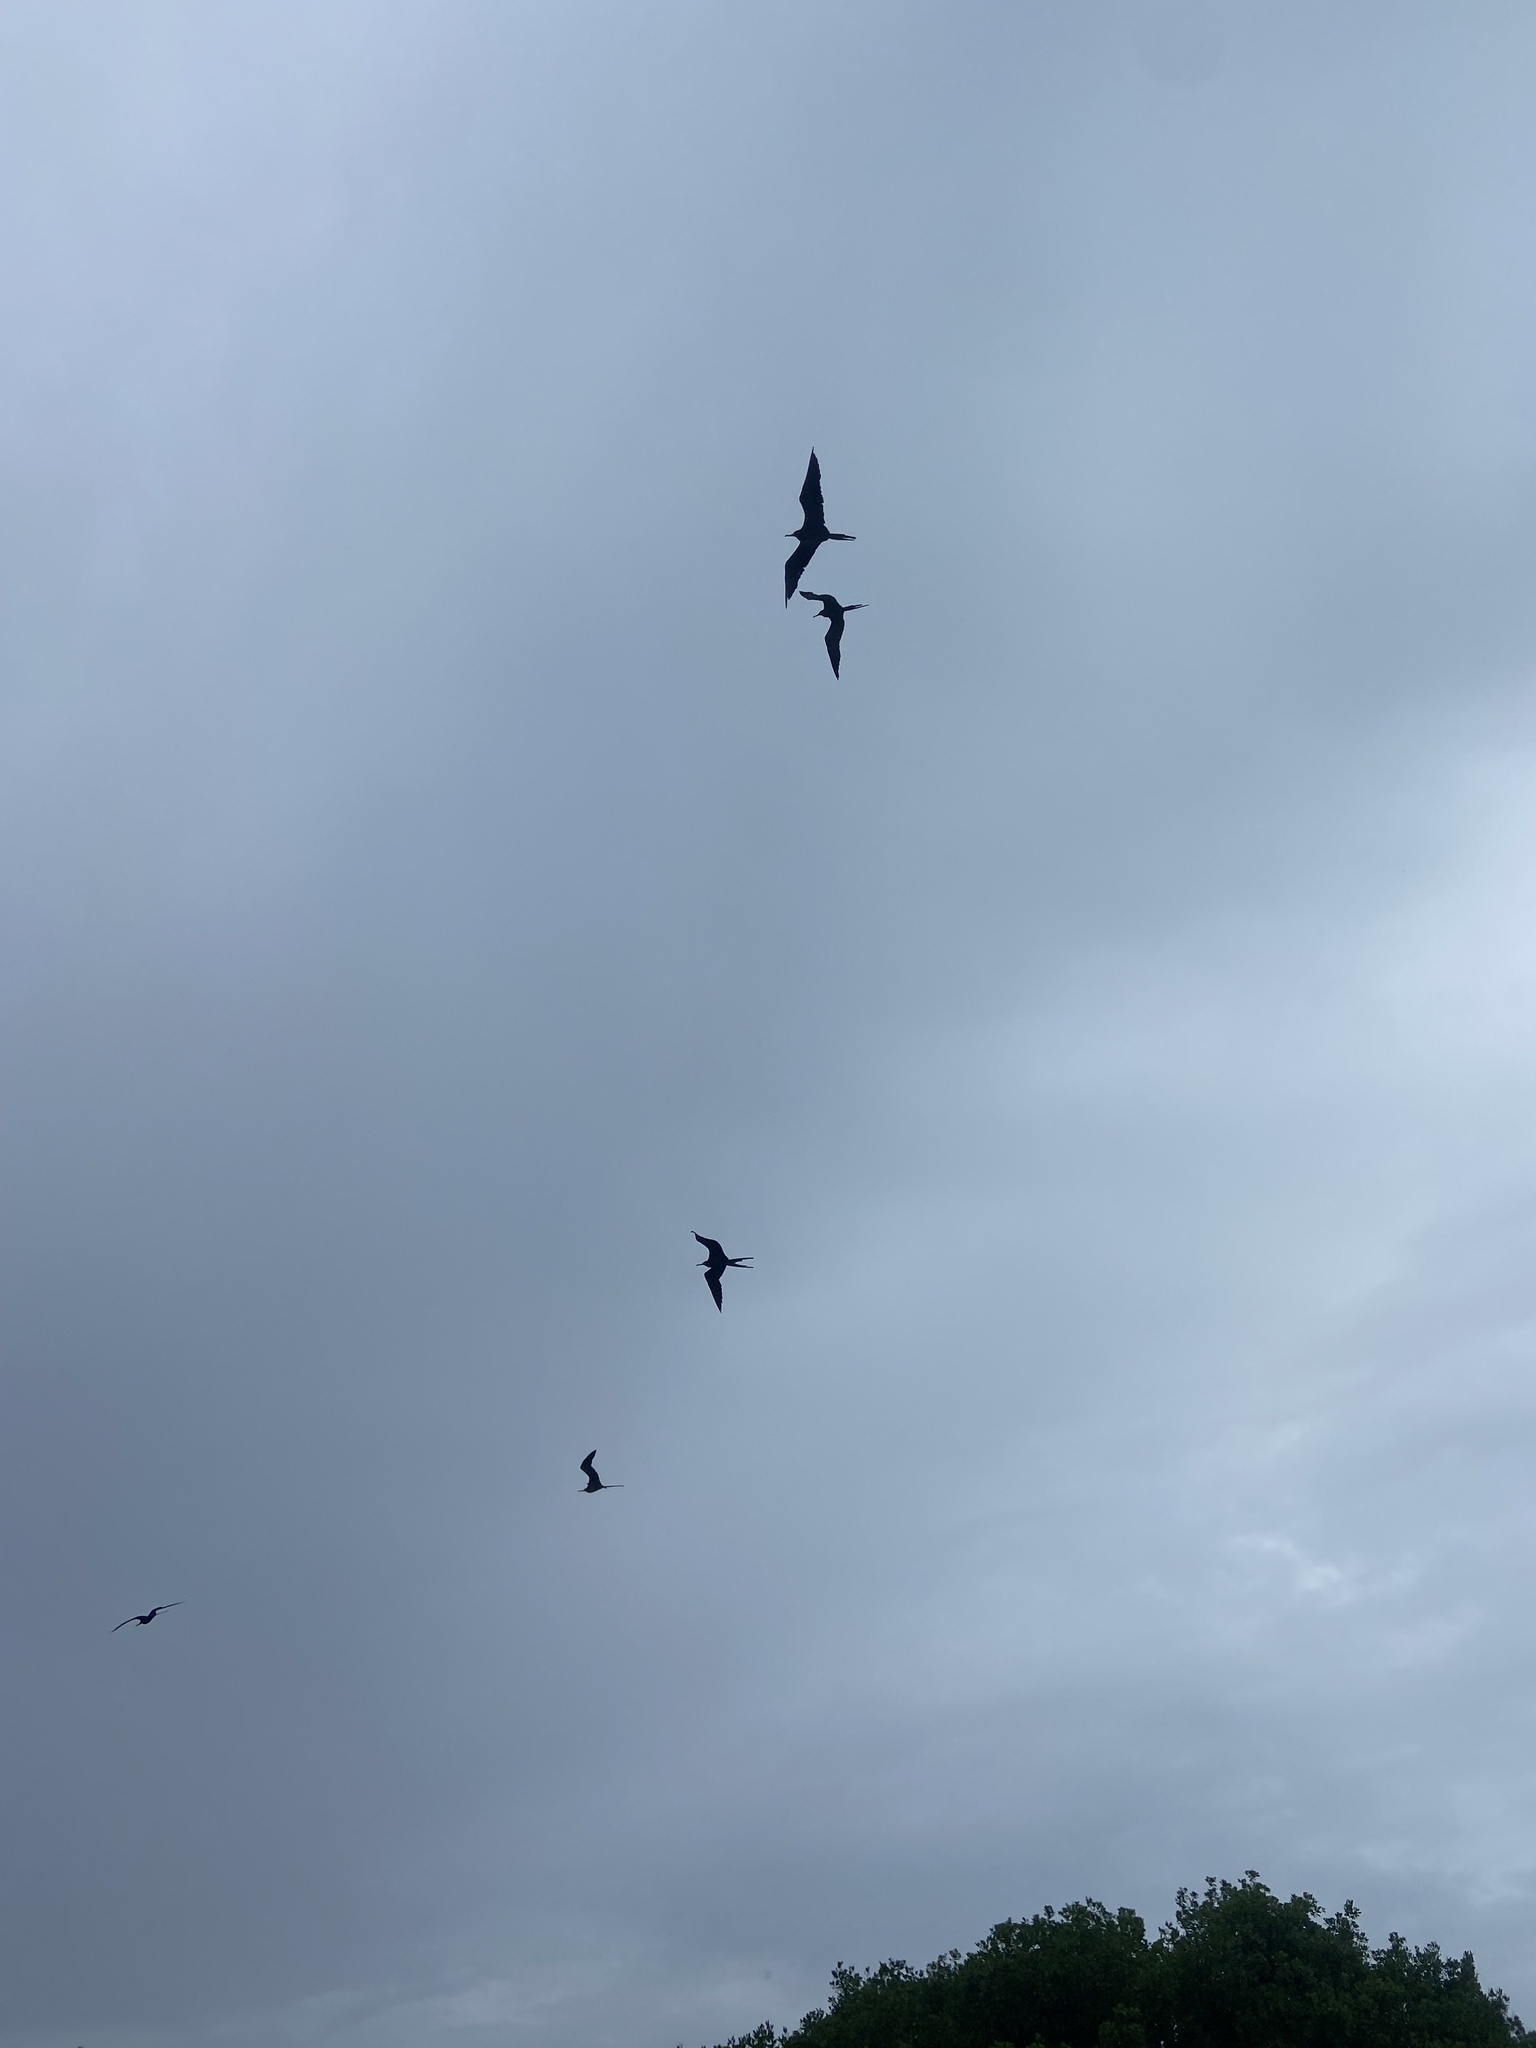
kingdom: Animalia
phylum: Chordata
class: Aves
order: Suliformes
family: Fregatidae
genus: Fregata
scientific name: Fregata magnificens
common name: Magnificent frigatebird
